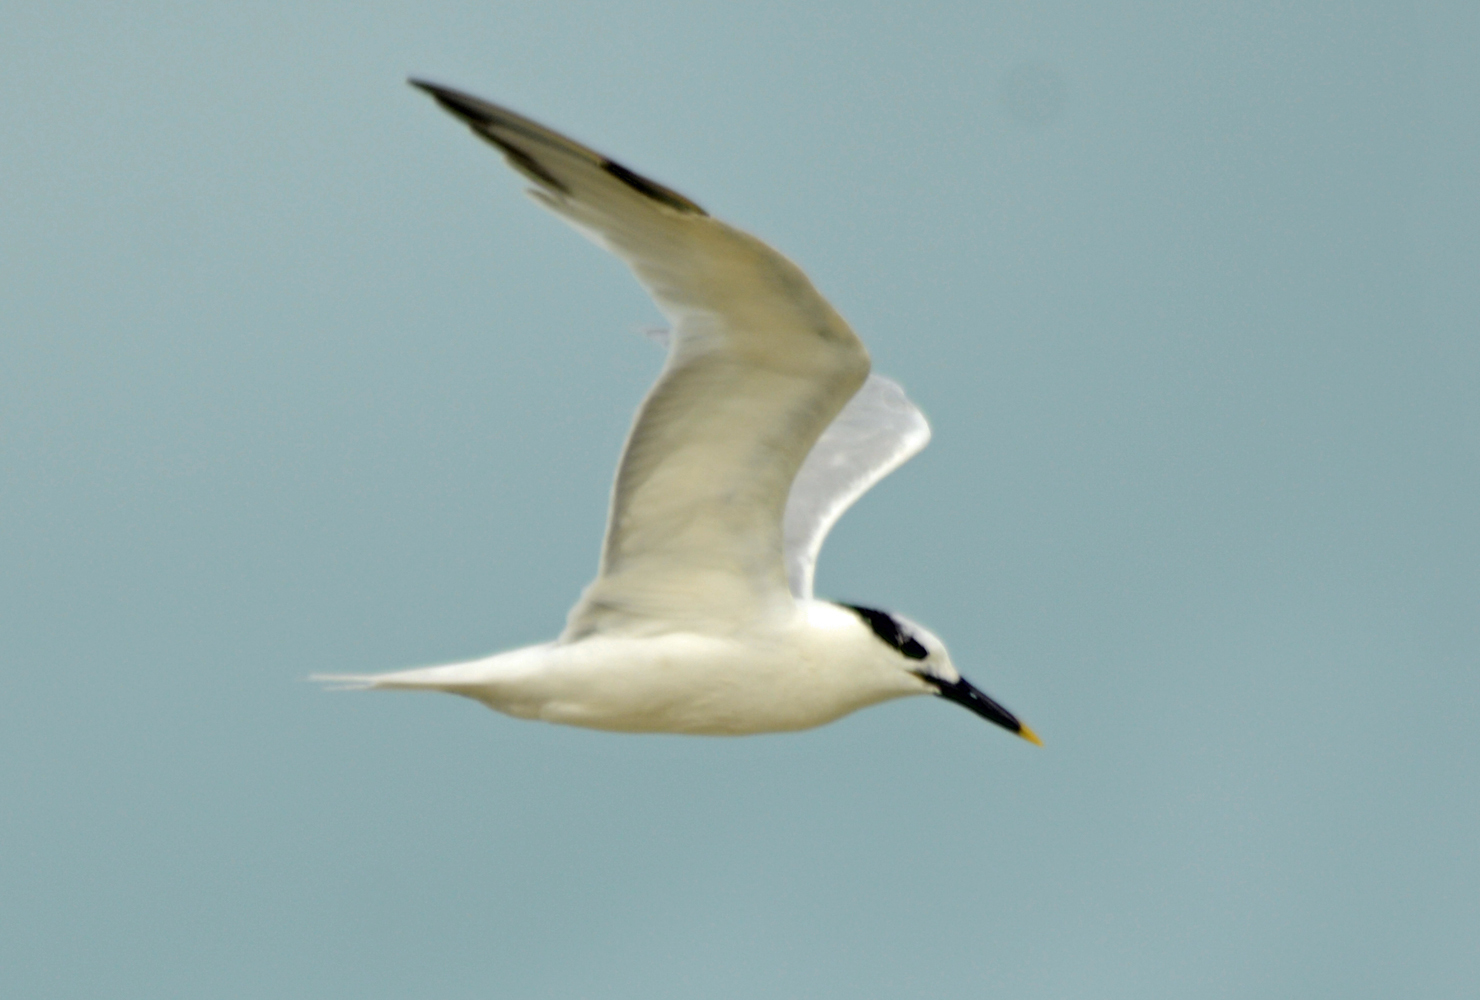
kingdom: Animalia
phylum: Chordata
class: Aves
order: Charadriiformes
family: Laridae
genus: Thalasseus
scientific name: Thalasseus sandvicensis
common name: Sandwich tern
